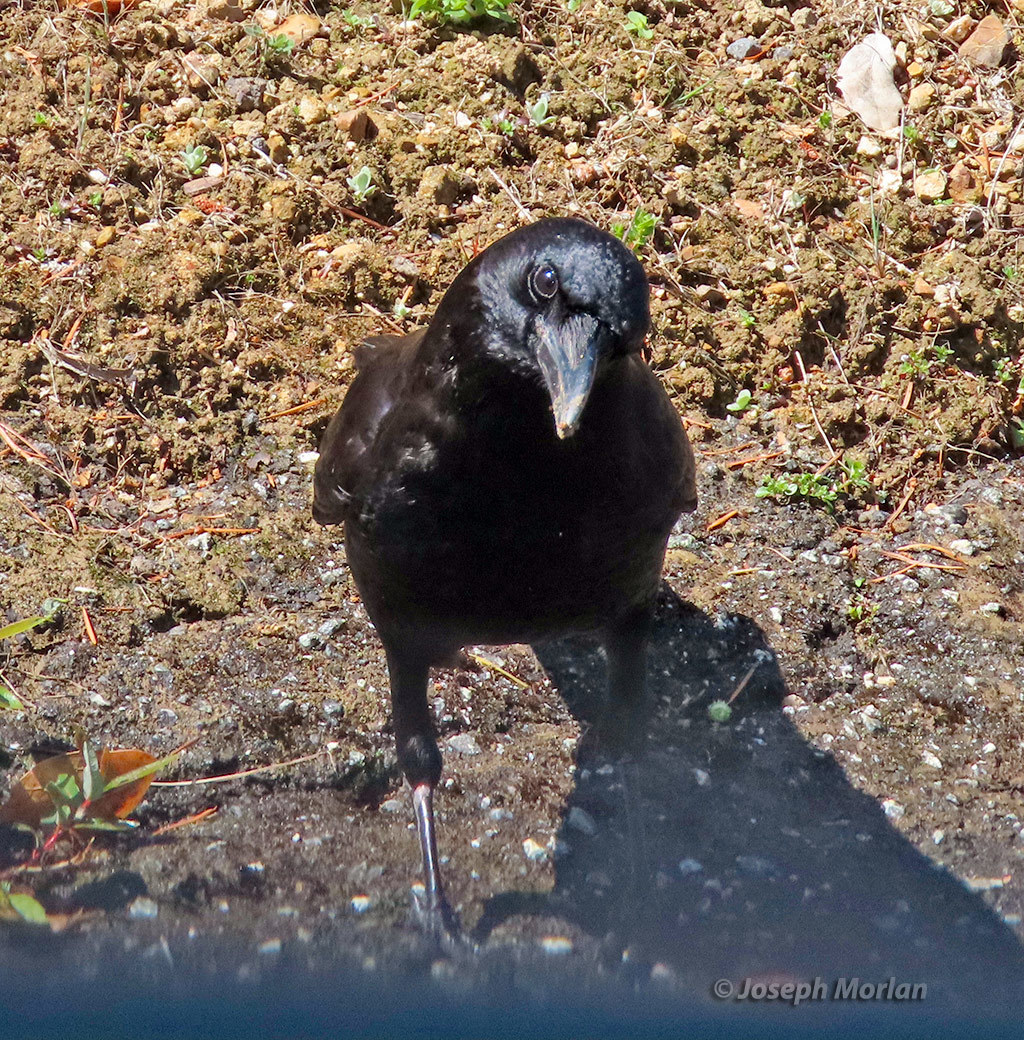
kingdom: Animalia
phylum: Chordata
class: Aves
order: Passeriformes
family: Corvidae
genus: Corvus
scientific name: Corvus brachyrhynchos
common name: American crow
